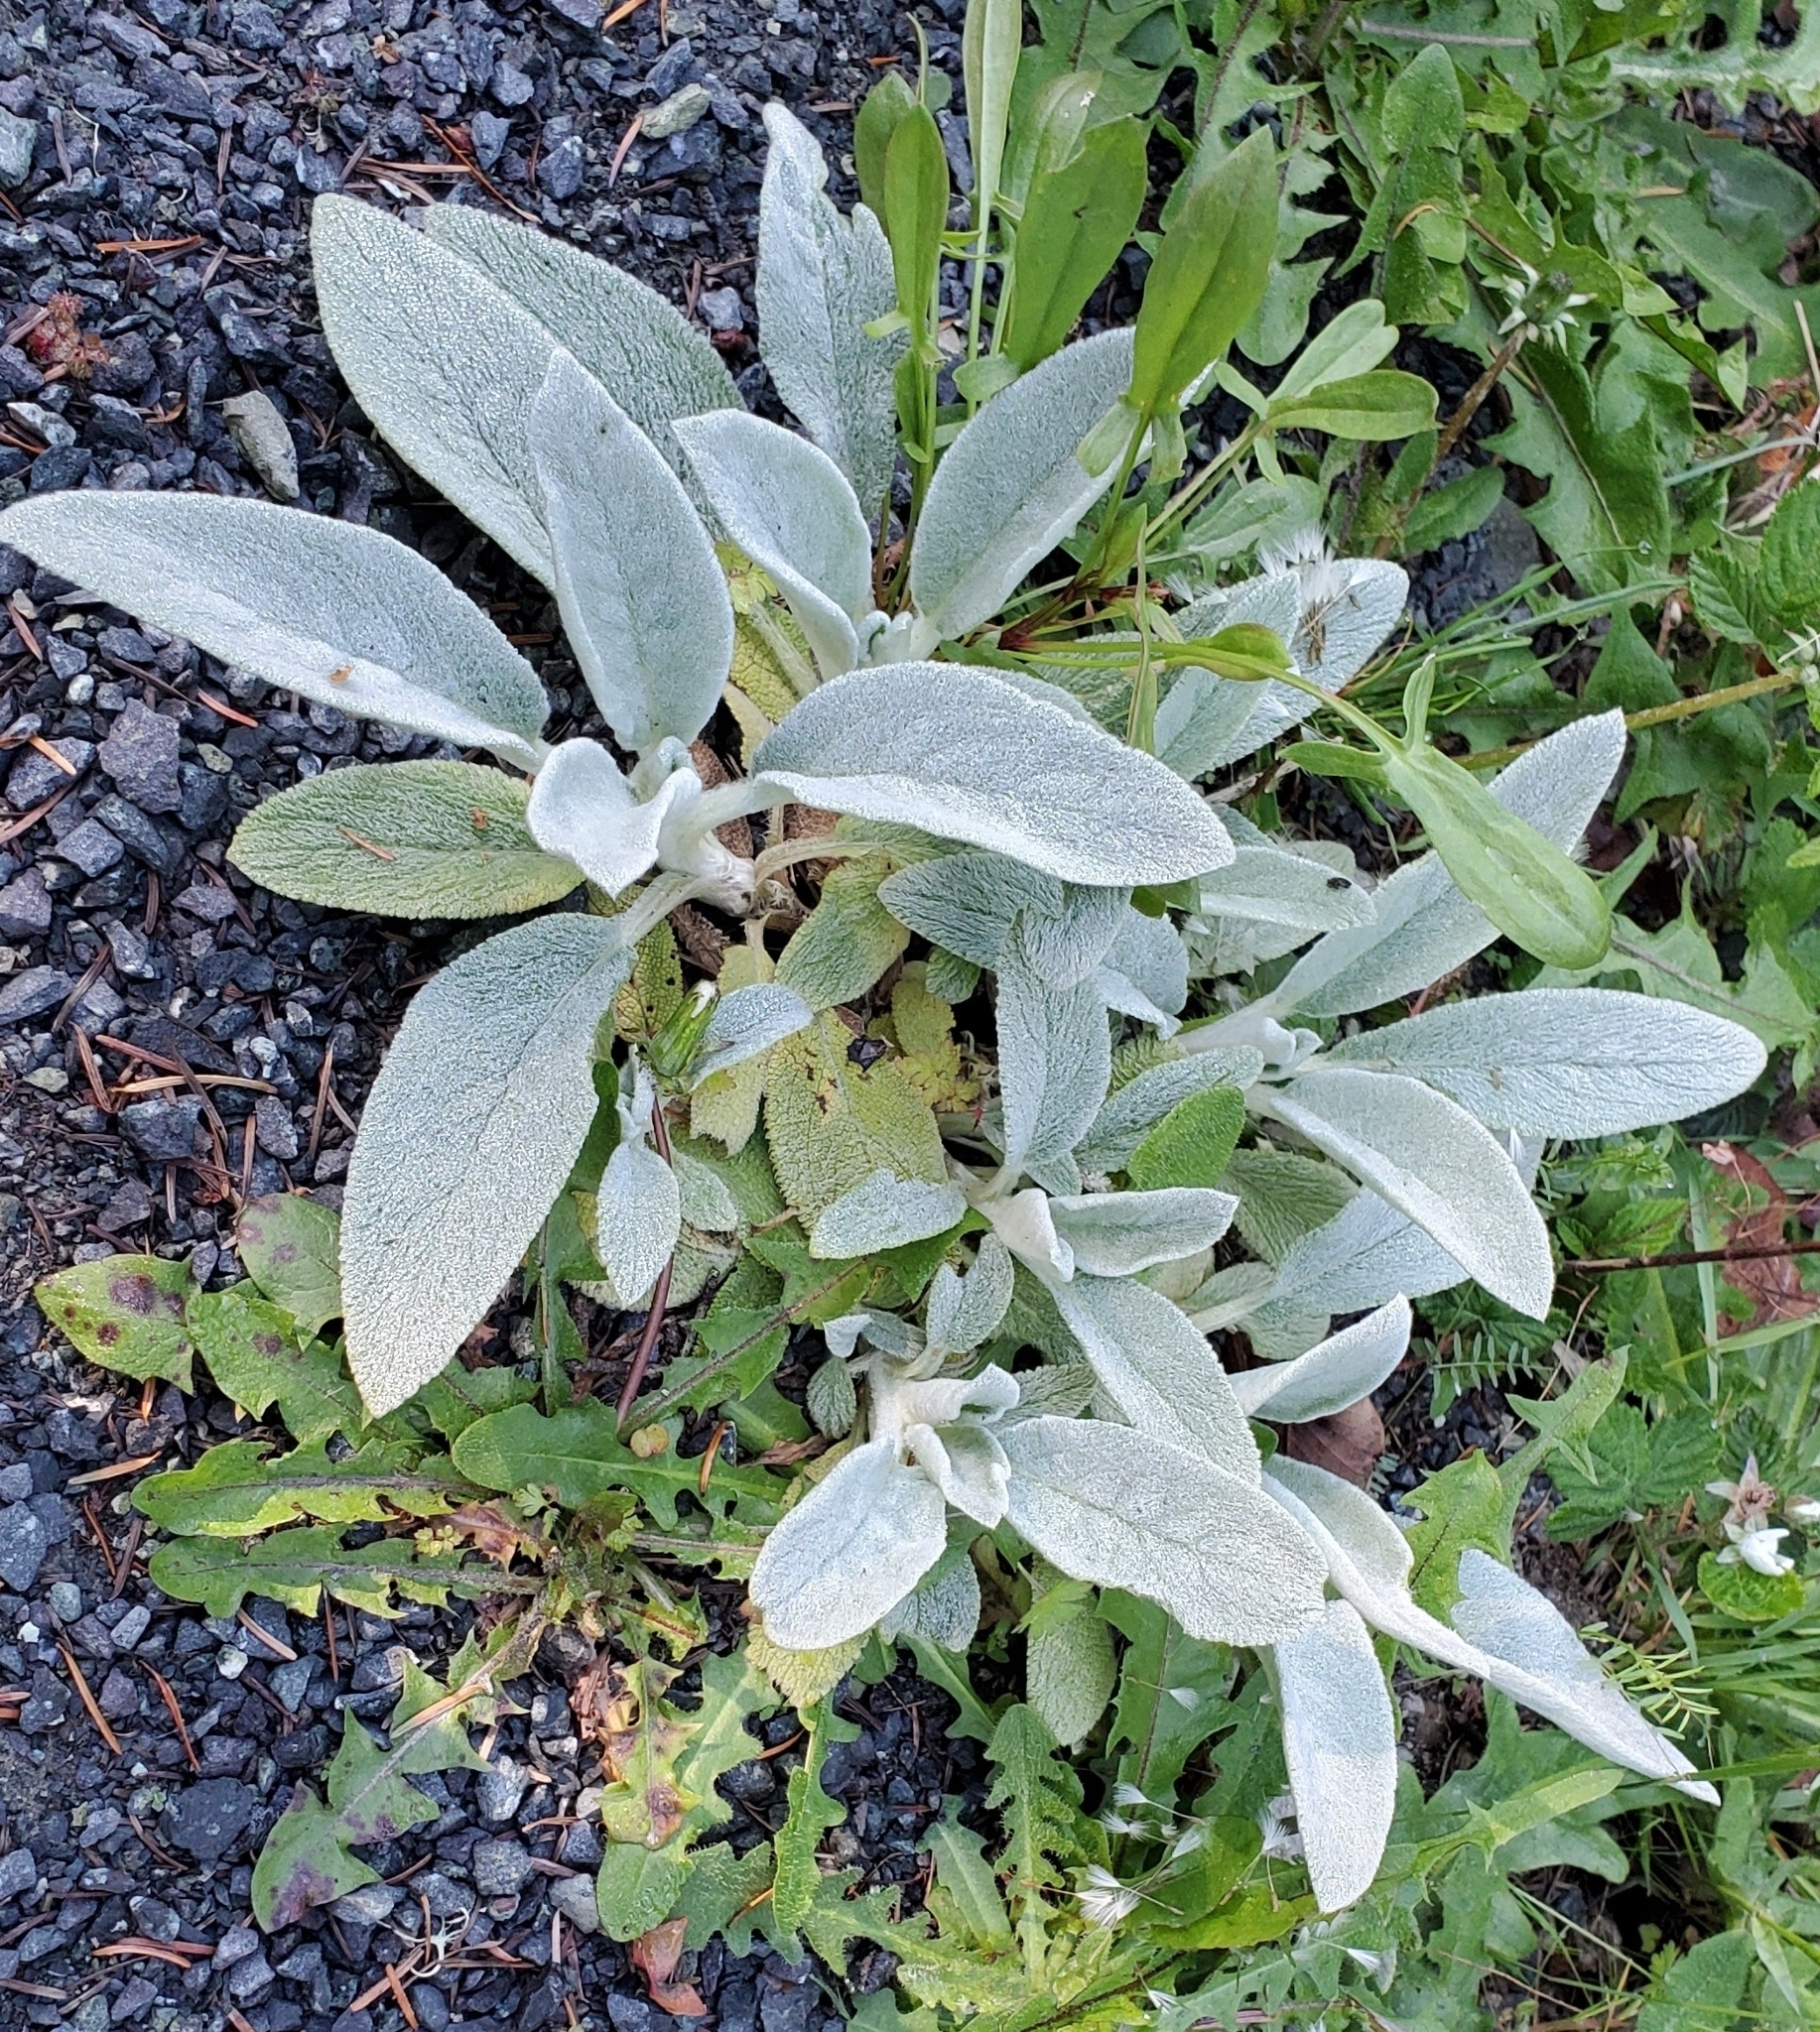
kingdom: Plantae
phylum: Tracheophyta
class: Magnoliopsida
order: Lamiales
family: Lamiaceae
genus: Stachys
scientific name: Stachys byzantina
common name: Lamb's-ear
